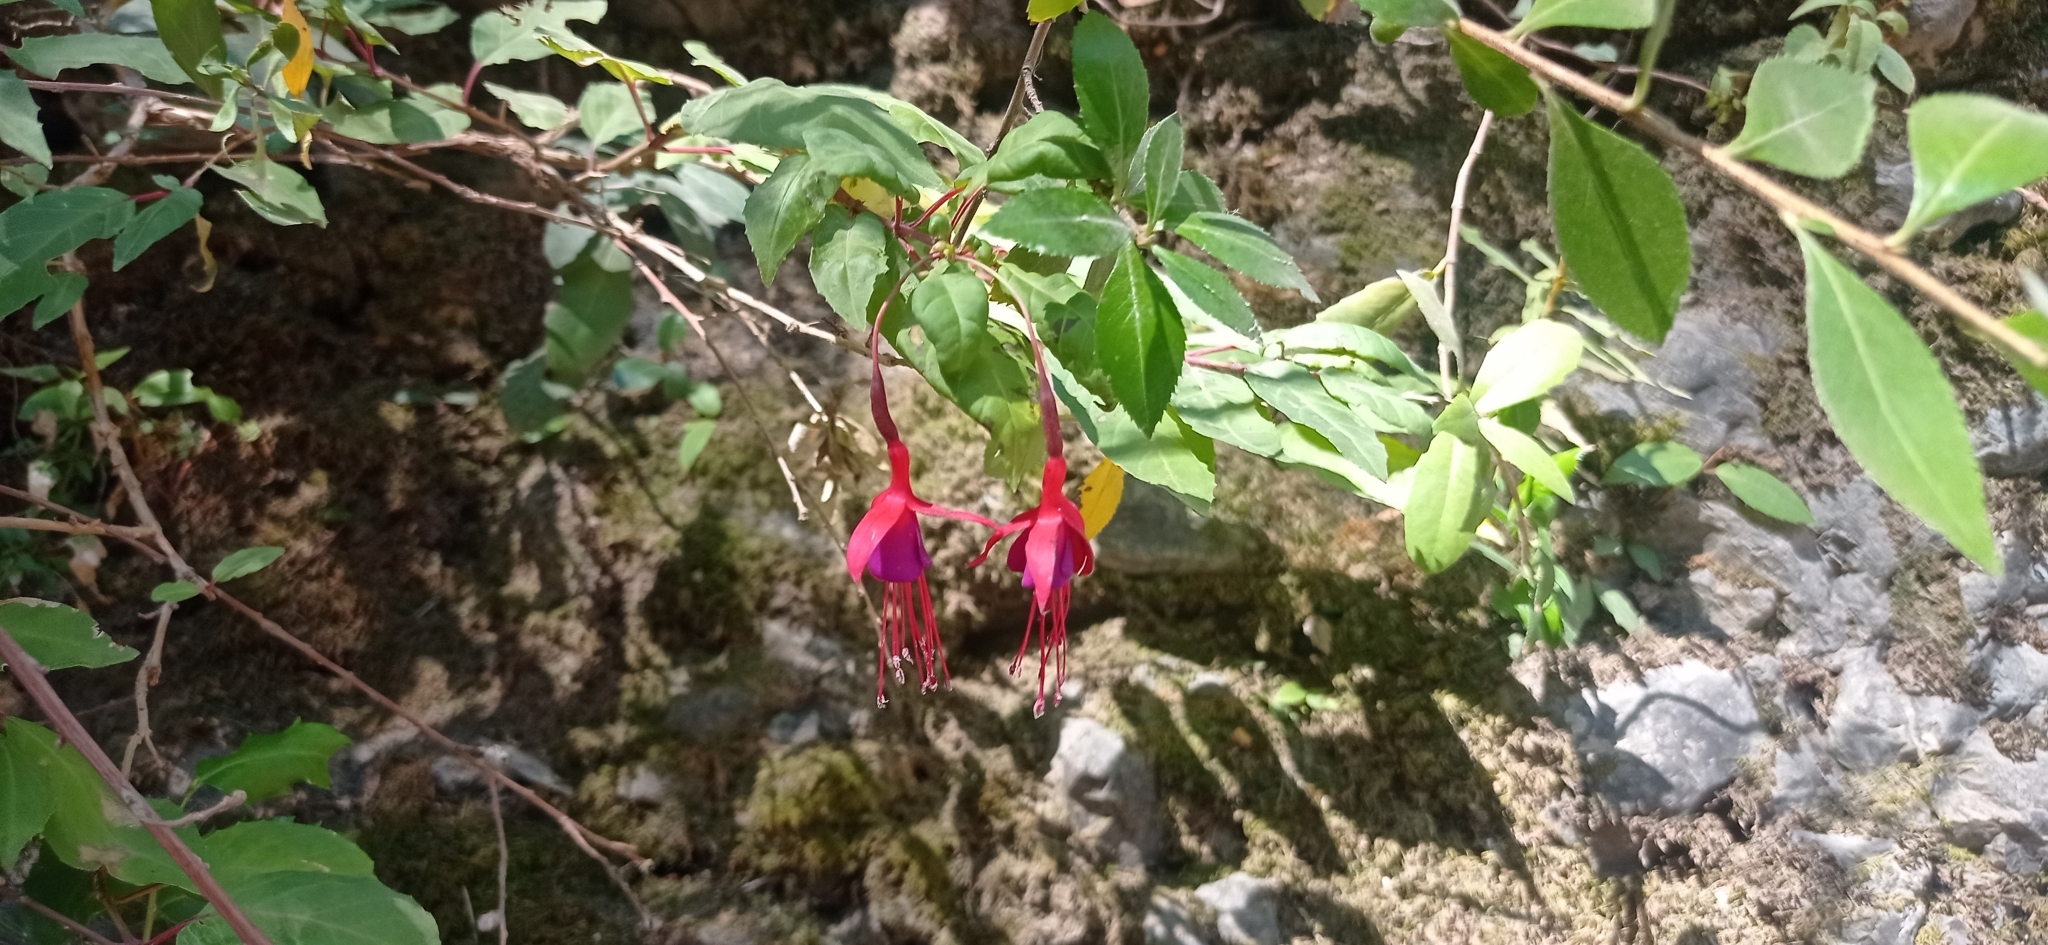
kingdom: Plantae
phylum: Tracheophyta
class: Magnoliopsida
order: Myrtales
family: Onagraceae
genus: Fuchsia
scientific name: Fuchsia magellanica
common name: Hardy fuchsia
